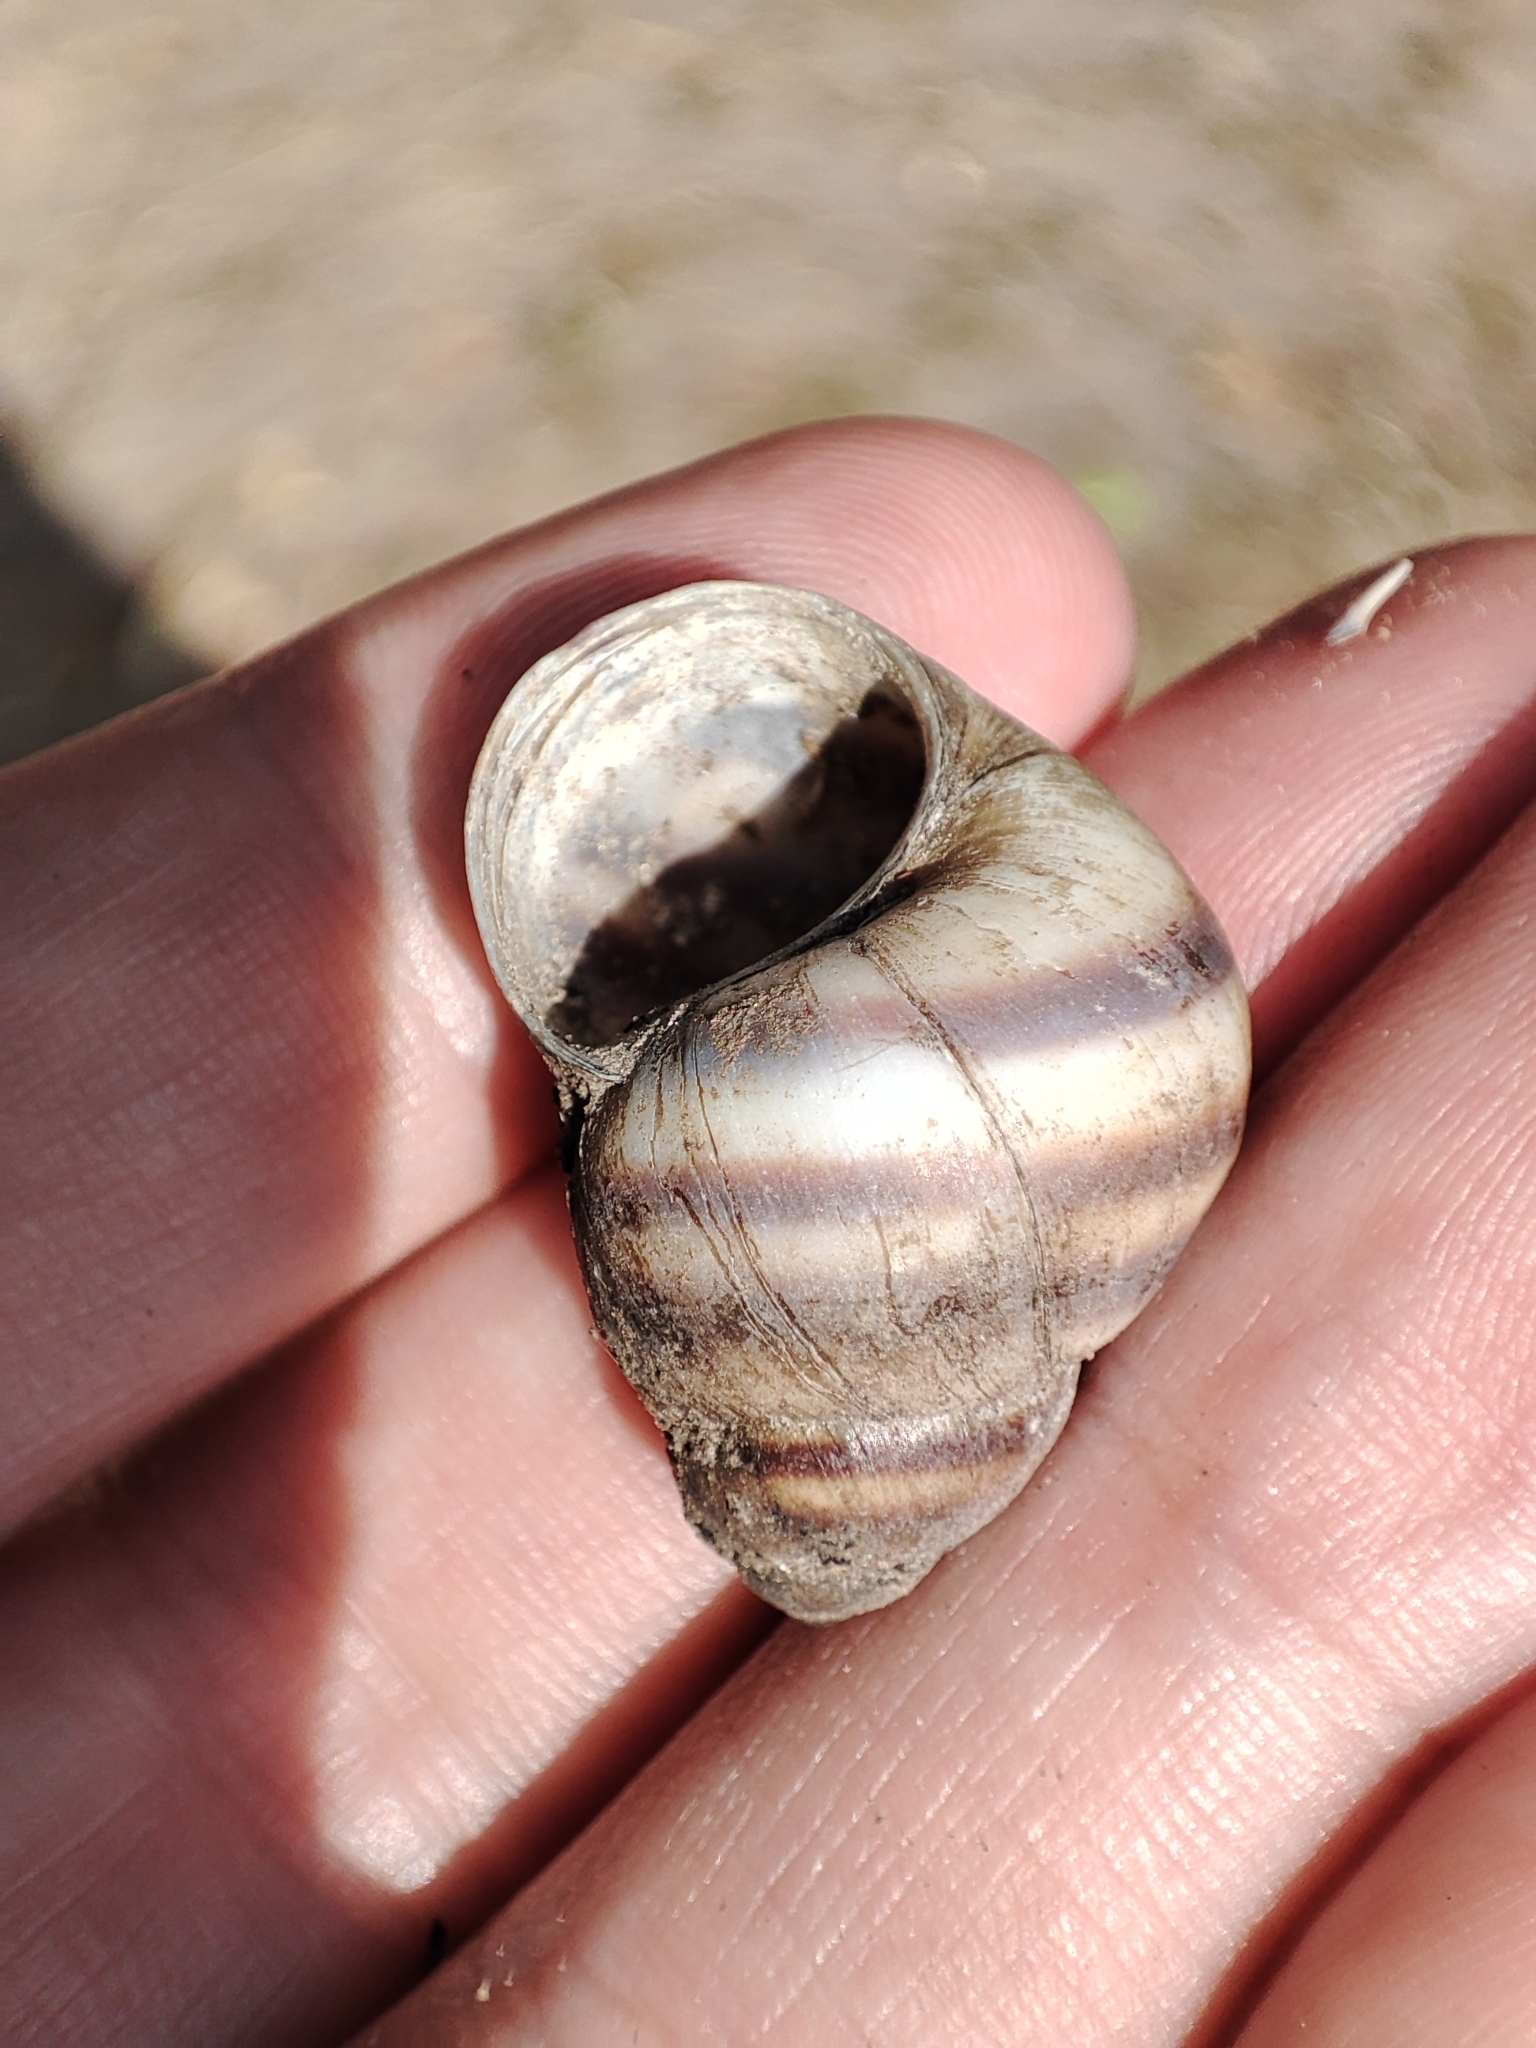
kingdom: Animalia
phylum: Mollusca
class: Gastropoda
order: Architaenioglossa
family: Viviparidae
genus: Viviparus
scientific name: Viviparus viviparus
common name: River snail
